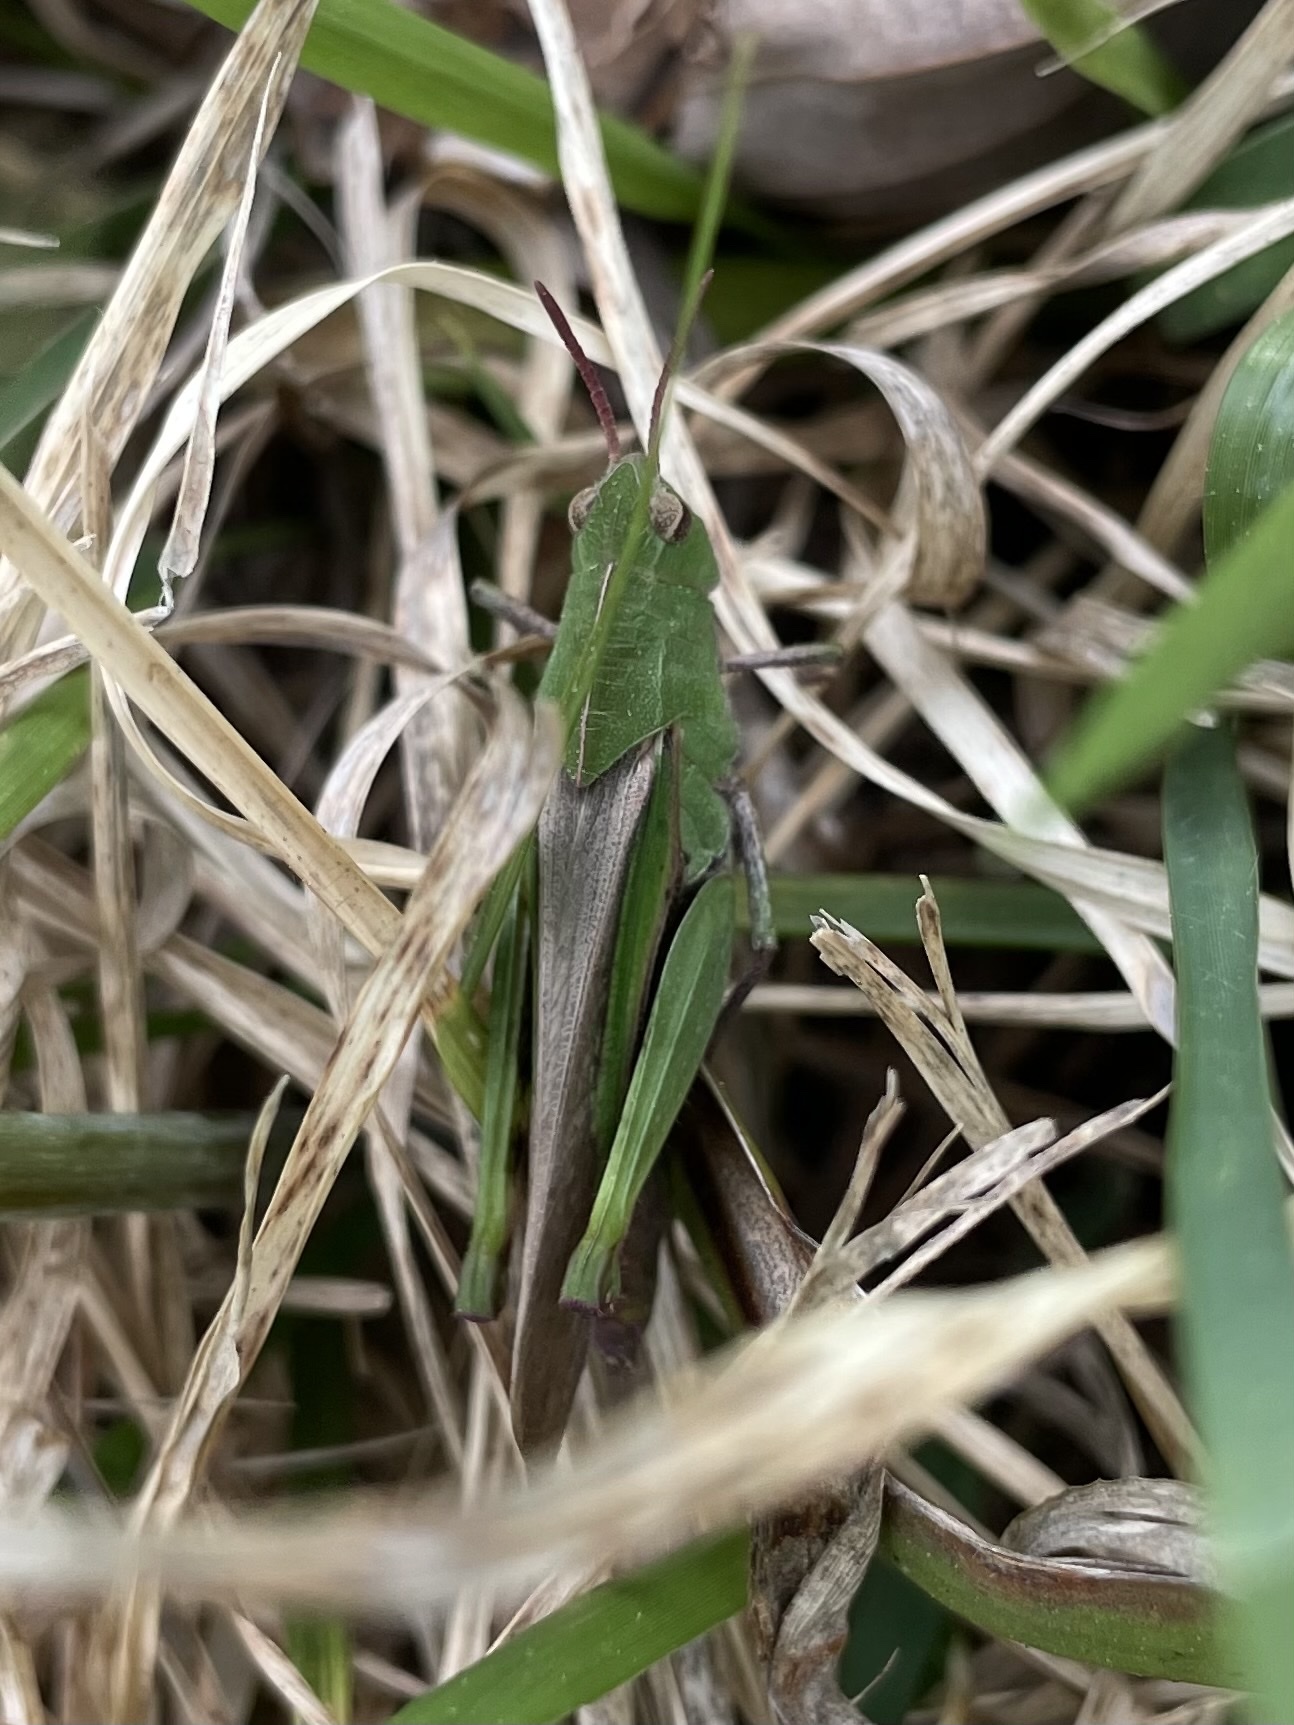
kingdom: Animalia
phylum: Arthropoda
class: Insecta
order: Orthoptera
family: Acrididae
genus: Chortophaga
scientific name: Chortophaga viridifasciata
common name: Green-striped grasshopper
